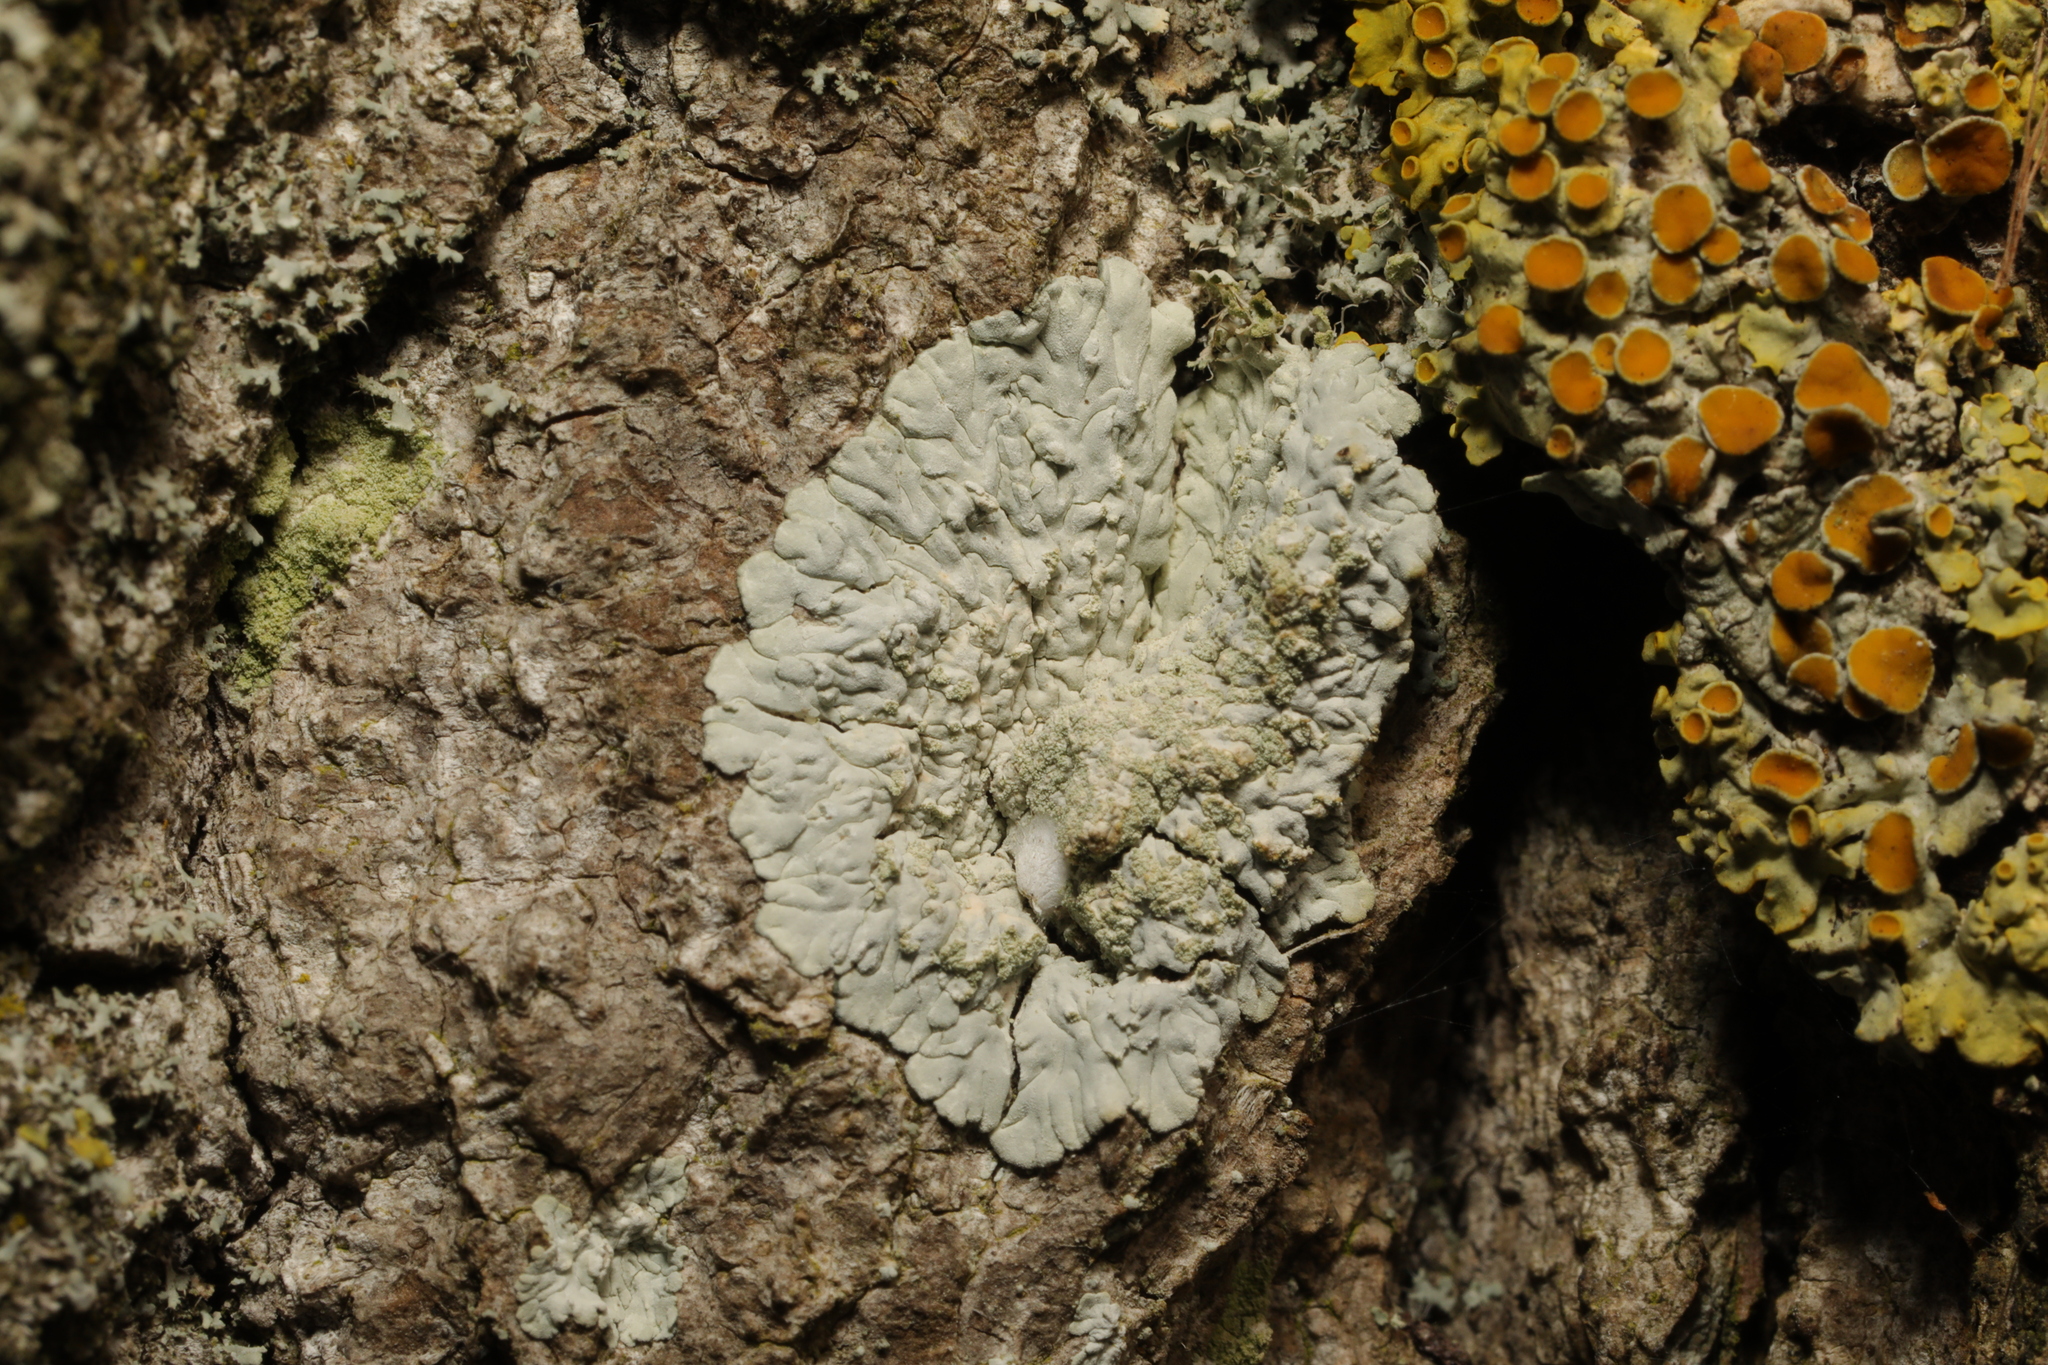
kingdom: Fungi
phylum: Ascomycota
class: Lecanoromycetes
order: Caliciales
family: Caliciaceae
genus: Diploicia
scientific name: Diploicia canescens
